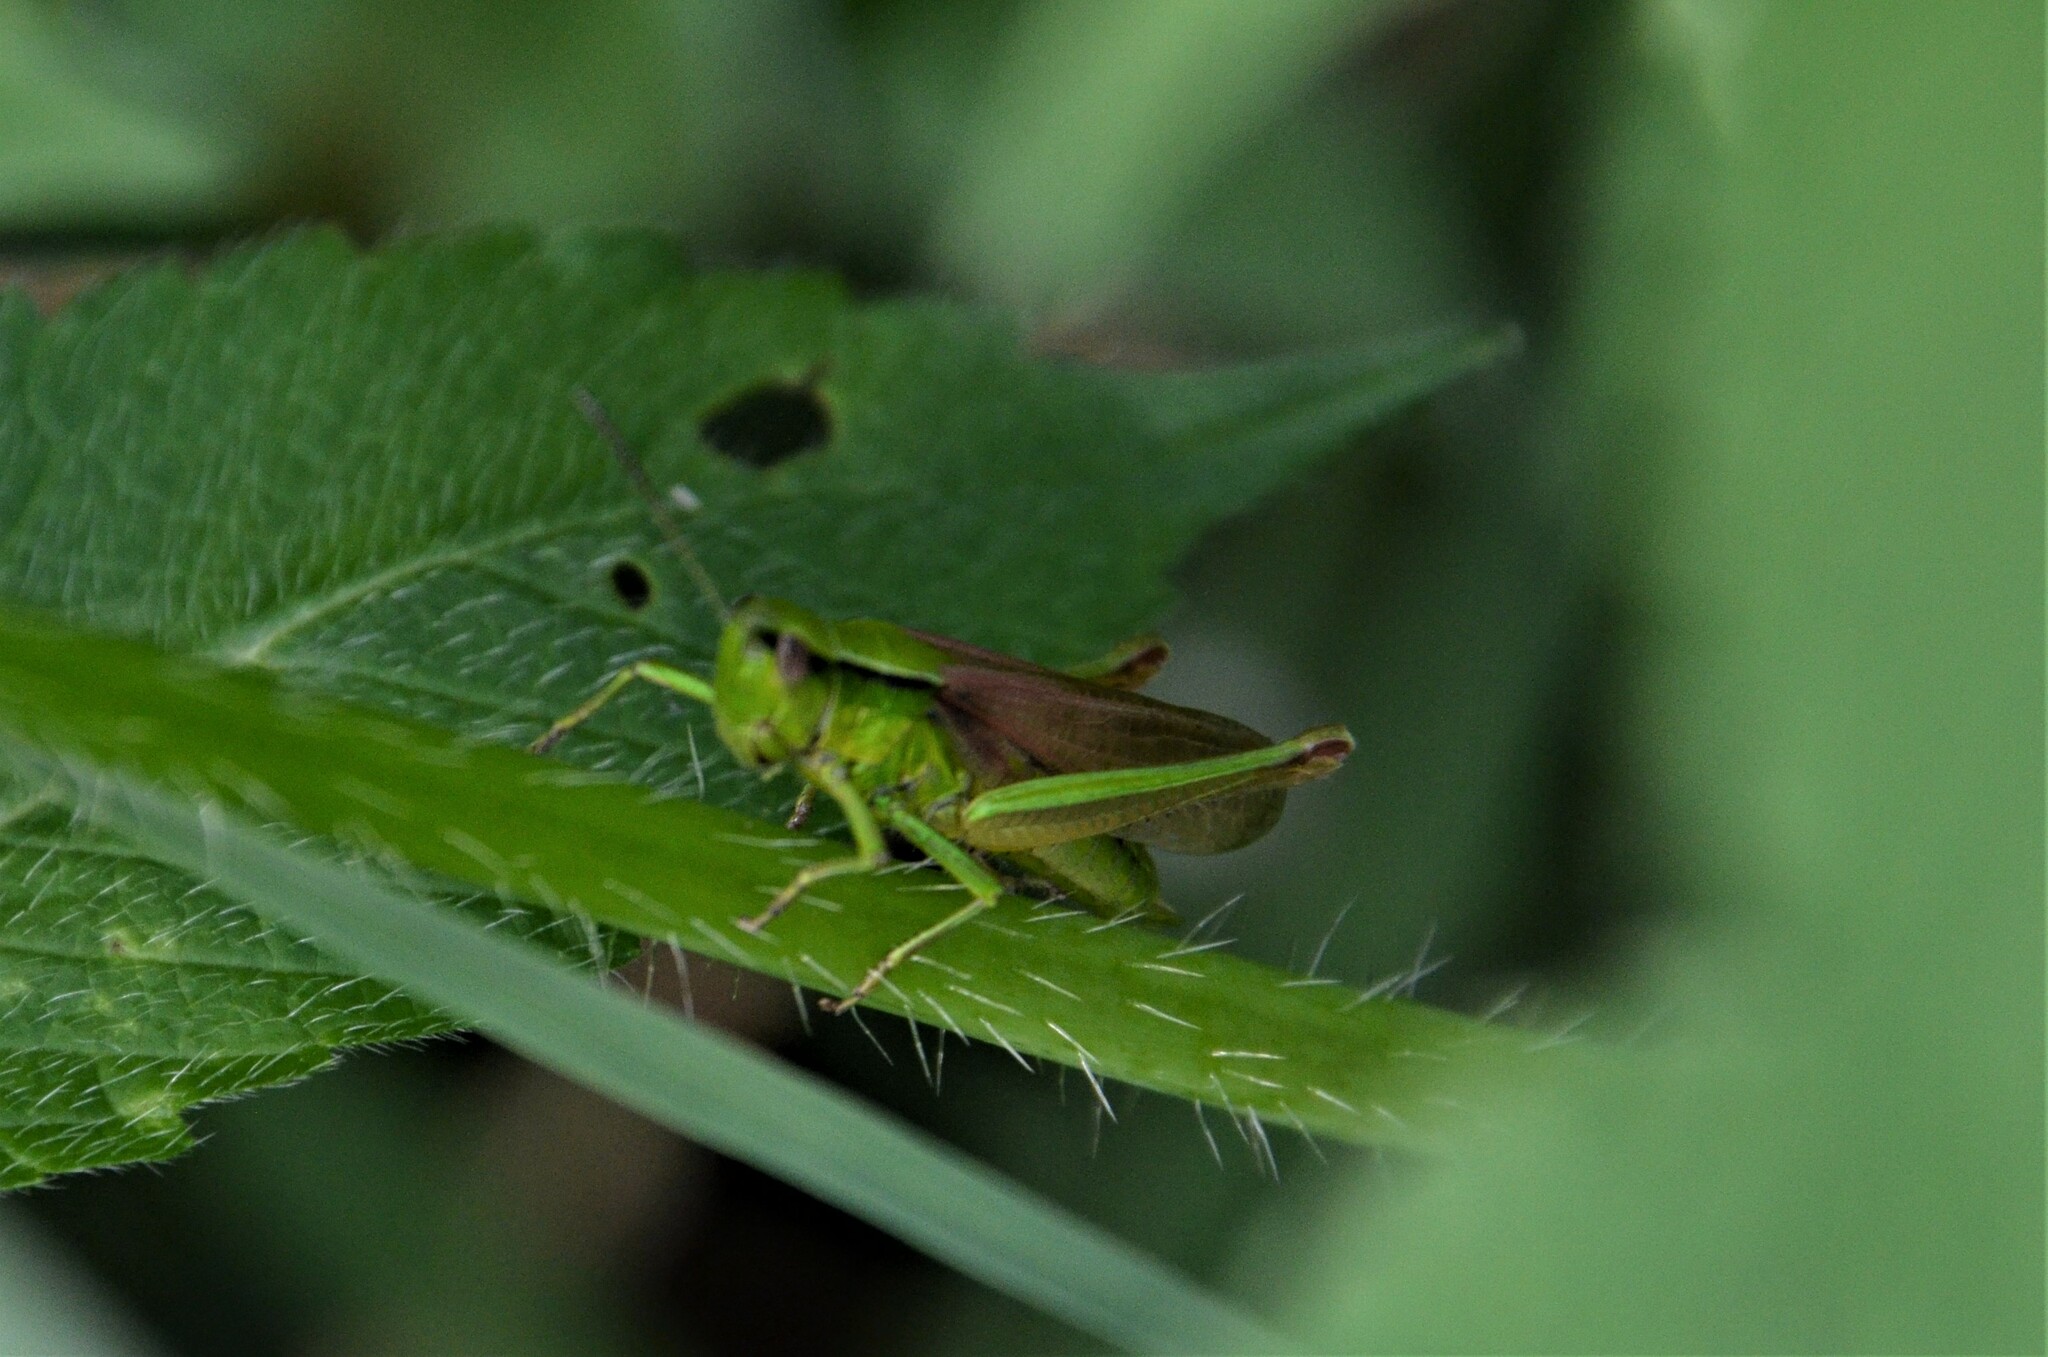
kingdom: Animalia
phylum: Arthropoda
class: Insecta
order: Orthoptera
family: Acrididae
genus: Euthystira
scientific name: Euthystira brachyptera
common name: Small gold grasshopper
